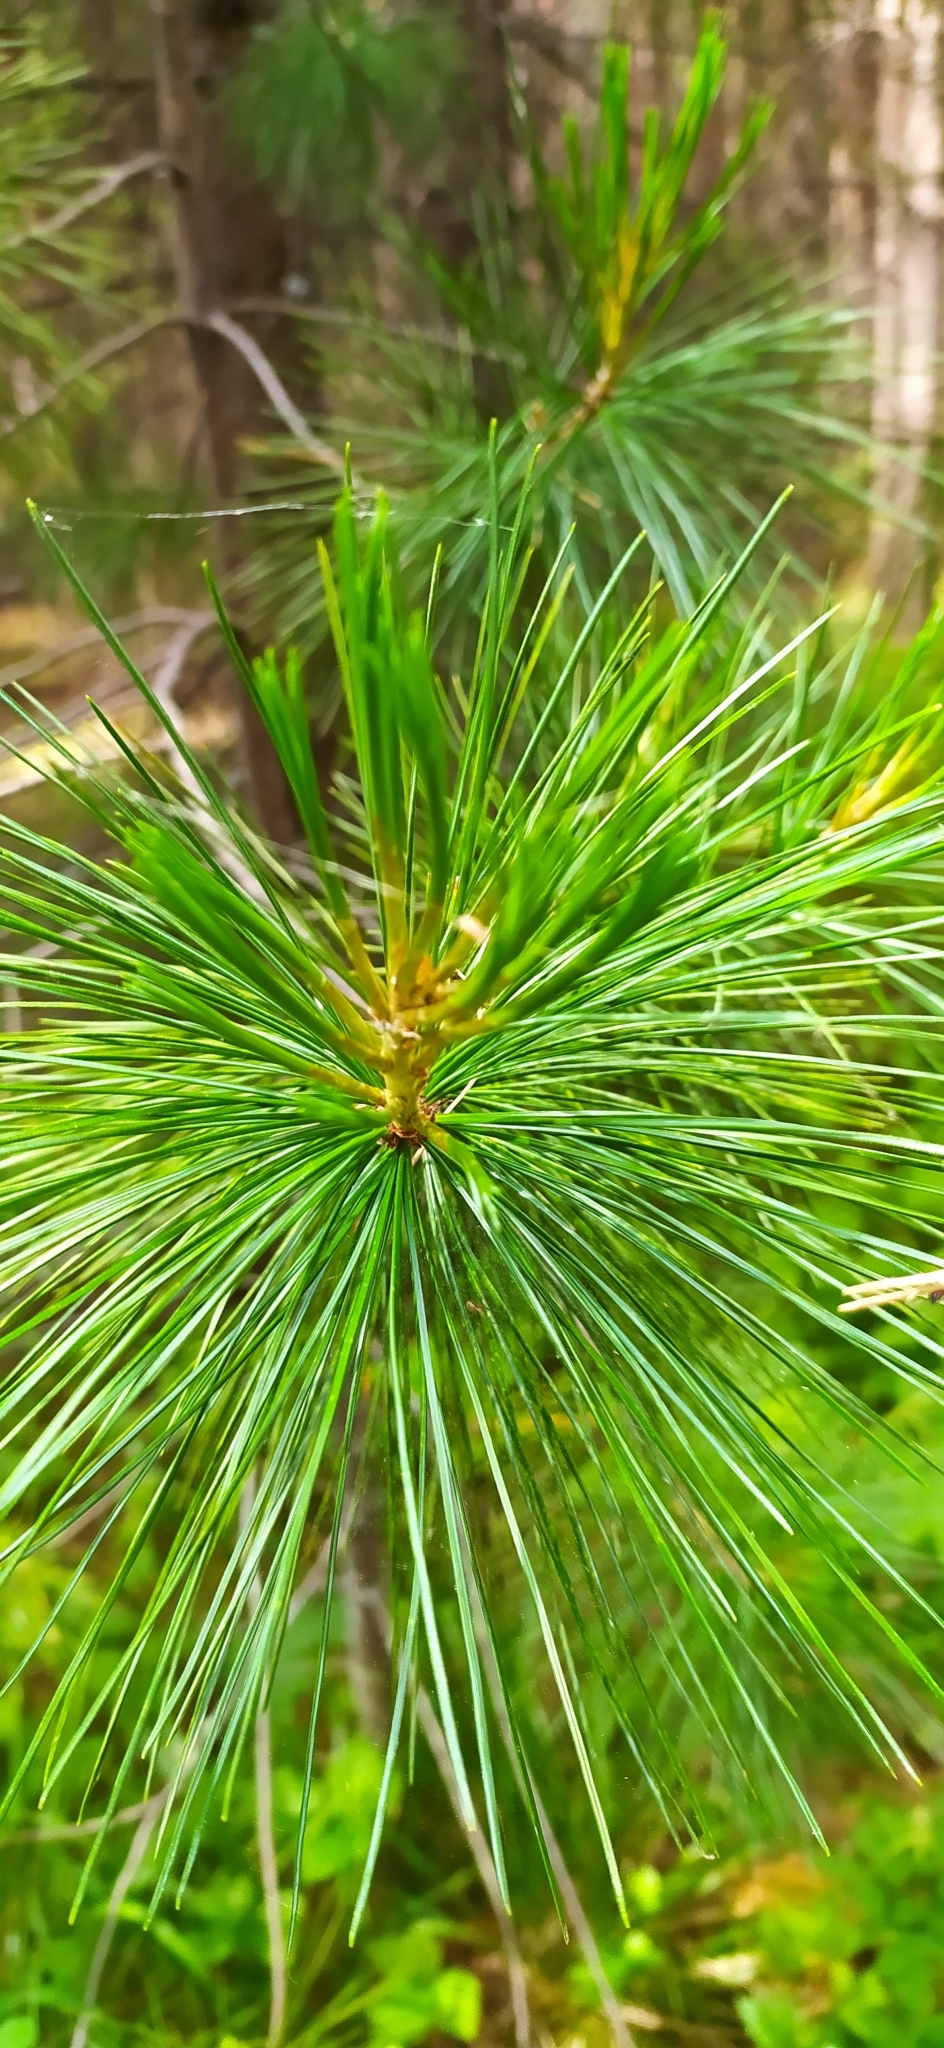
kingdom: Plantae
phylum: Tracheophyta
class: Pinopsida
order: Pinales
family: Pinaceae
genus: Pinus
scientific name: Pinus sibirica
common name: Siberian pine
